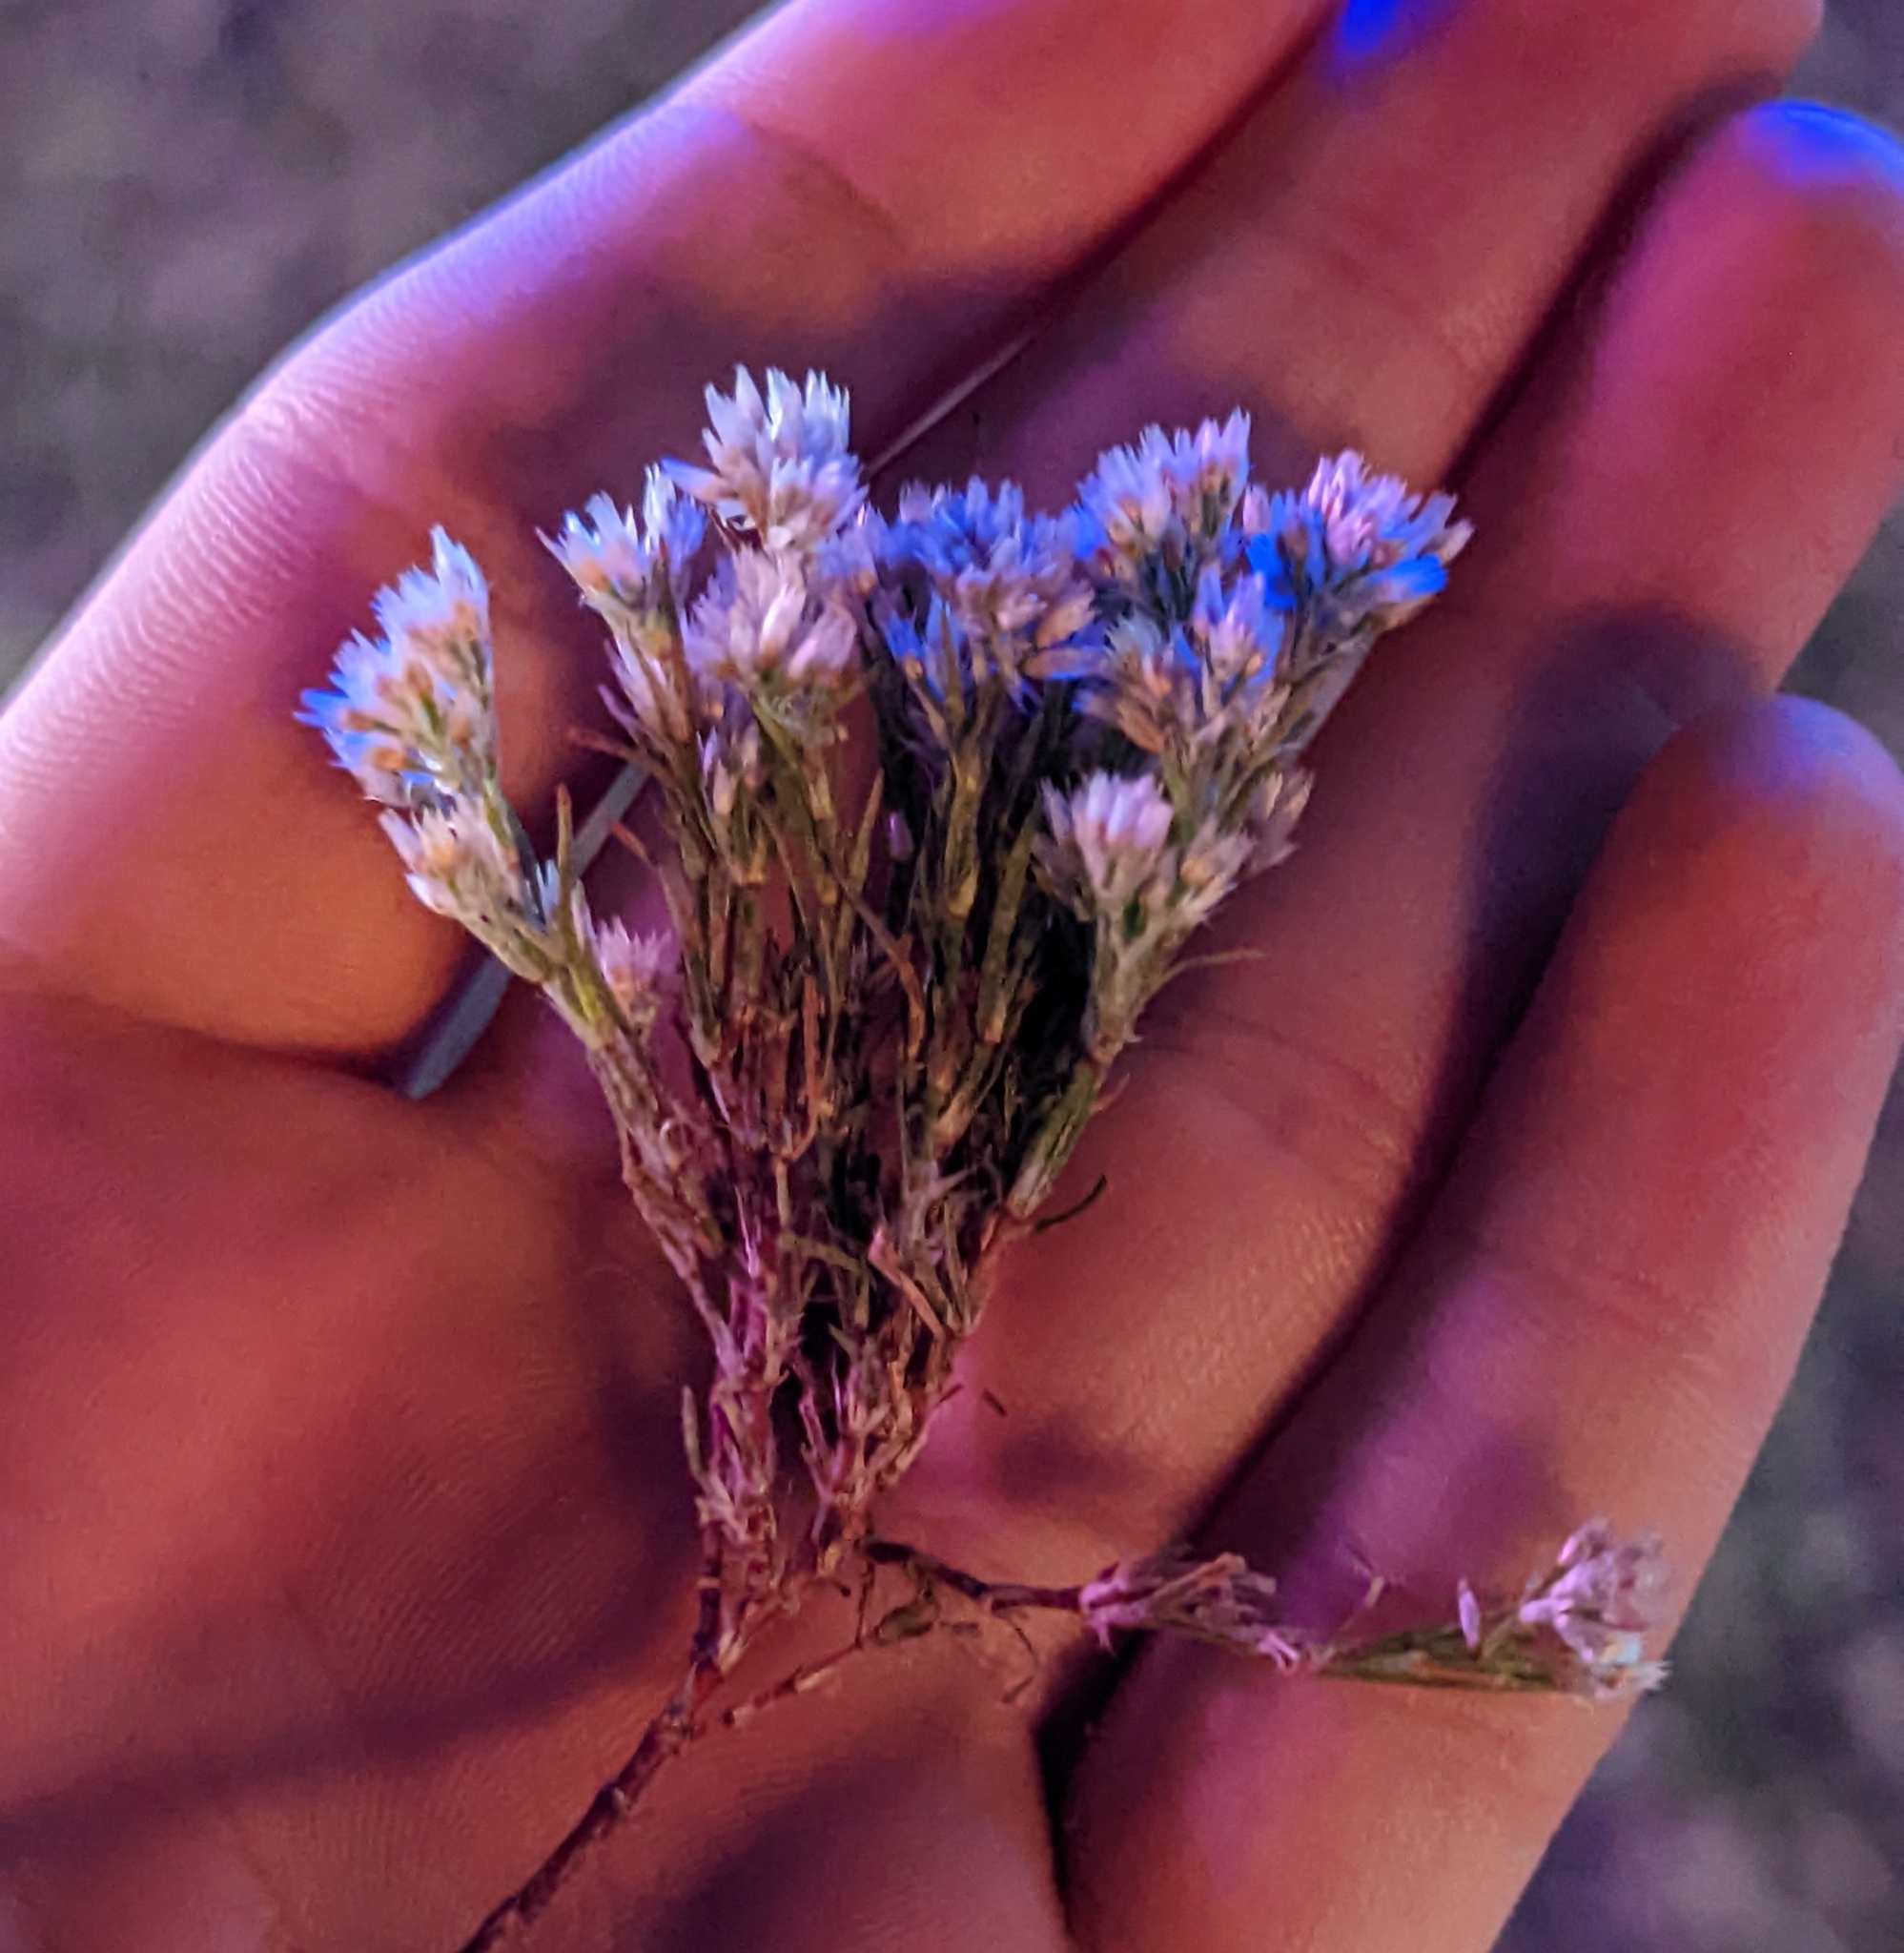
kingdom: Plantae
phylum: Tracheophyta
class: Magnoliopsida
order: Caryophyllales
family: Caryophyllaceae
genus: Polycarpaea
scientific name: Polycarpaea corymbosa
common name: Oldman's cap
